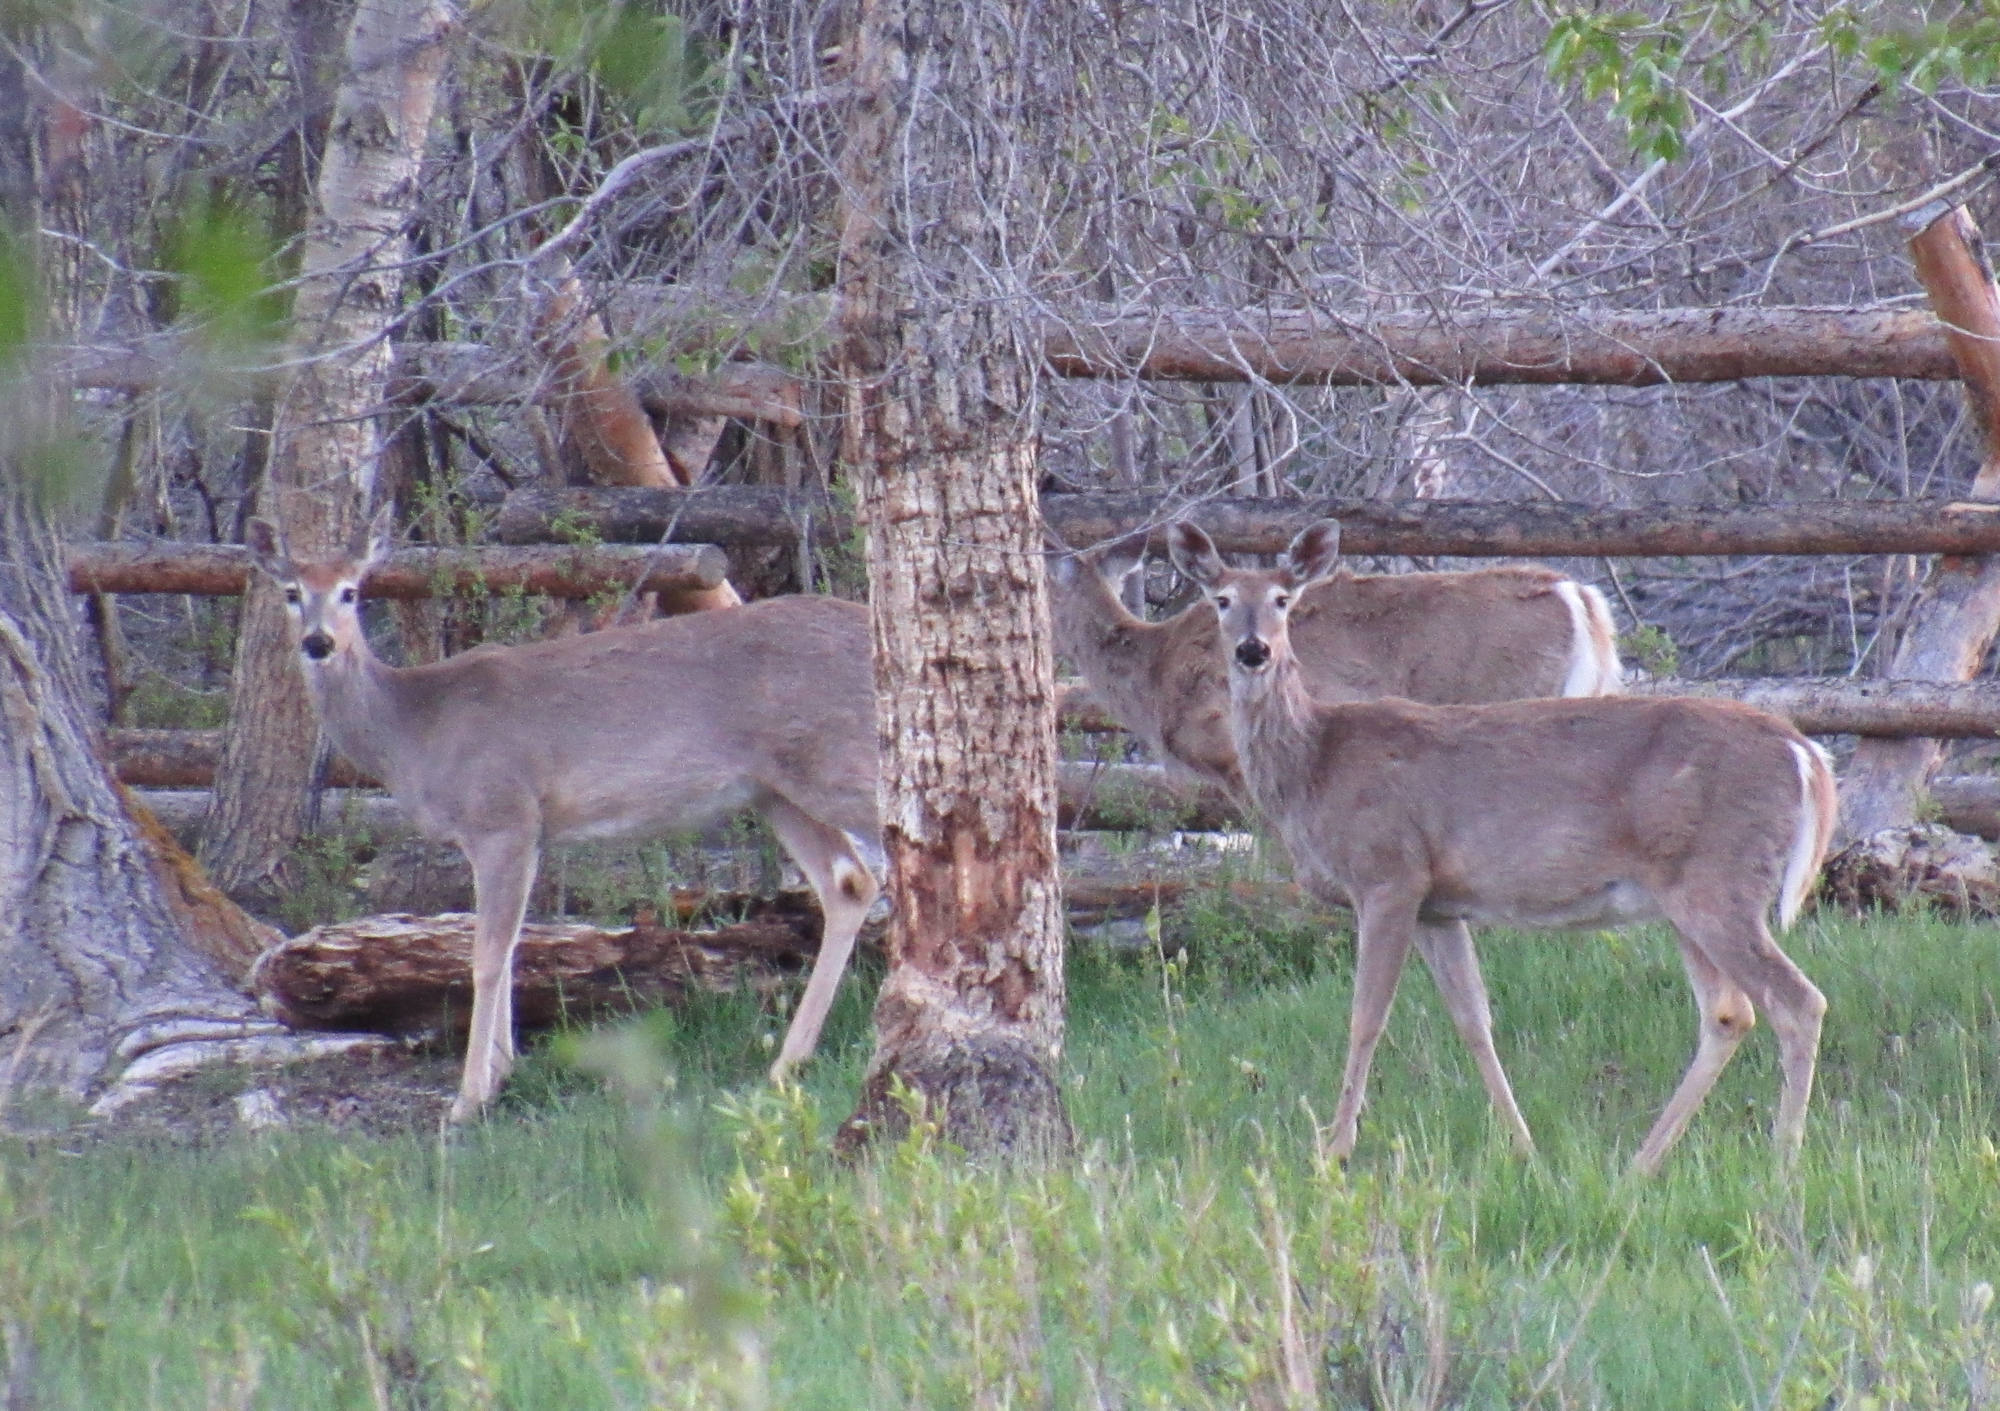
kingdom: Animalia
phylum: Chordata
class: Mammalia
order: Artiodactyla
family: Cervidae
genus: Odocoileus
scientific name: Odocoileus virginianus
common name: White-tailed deer
